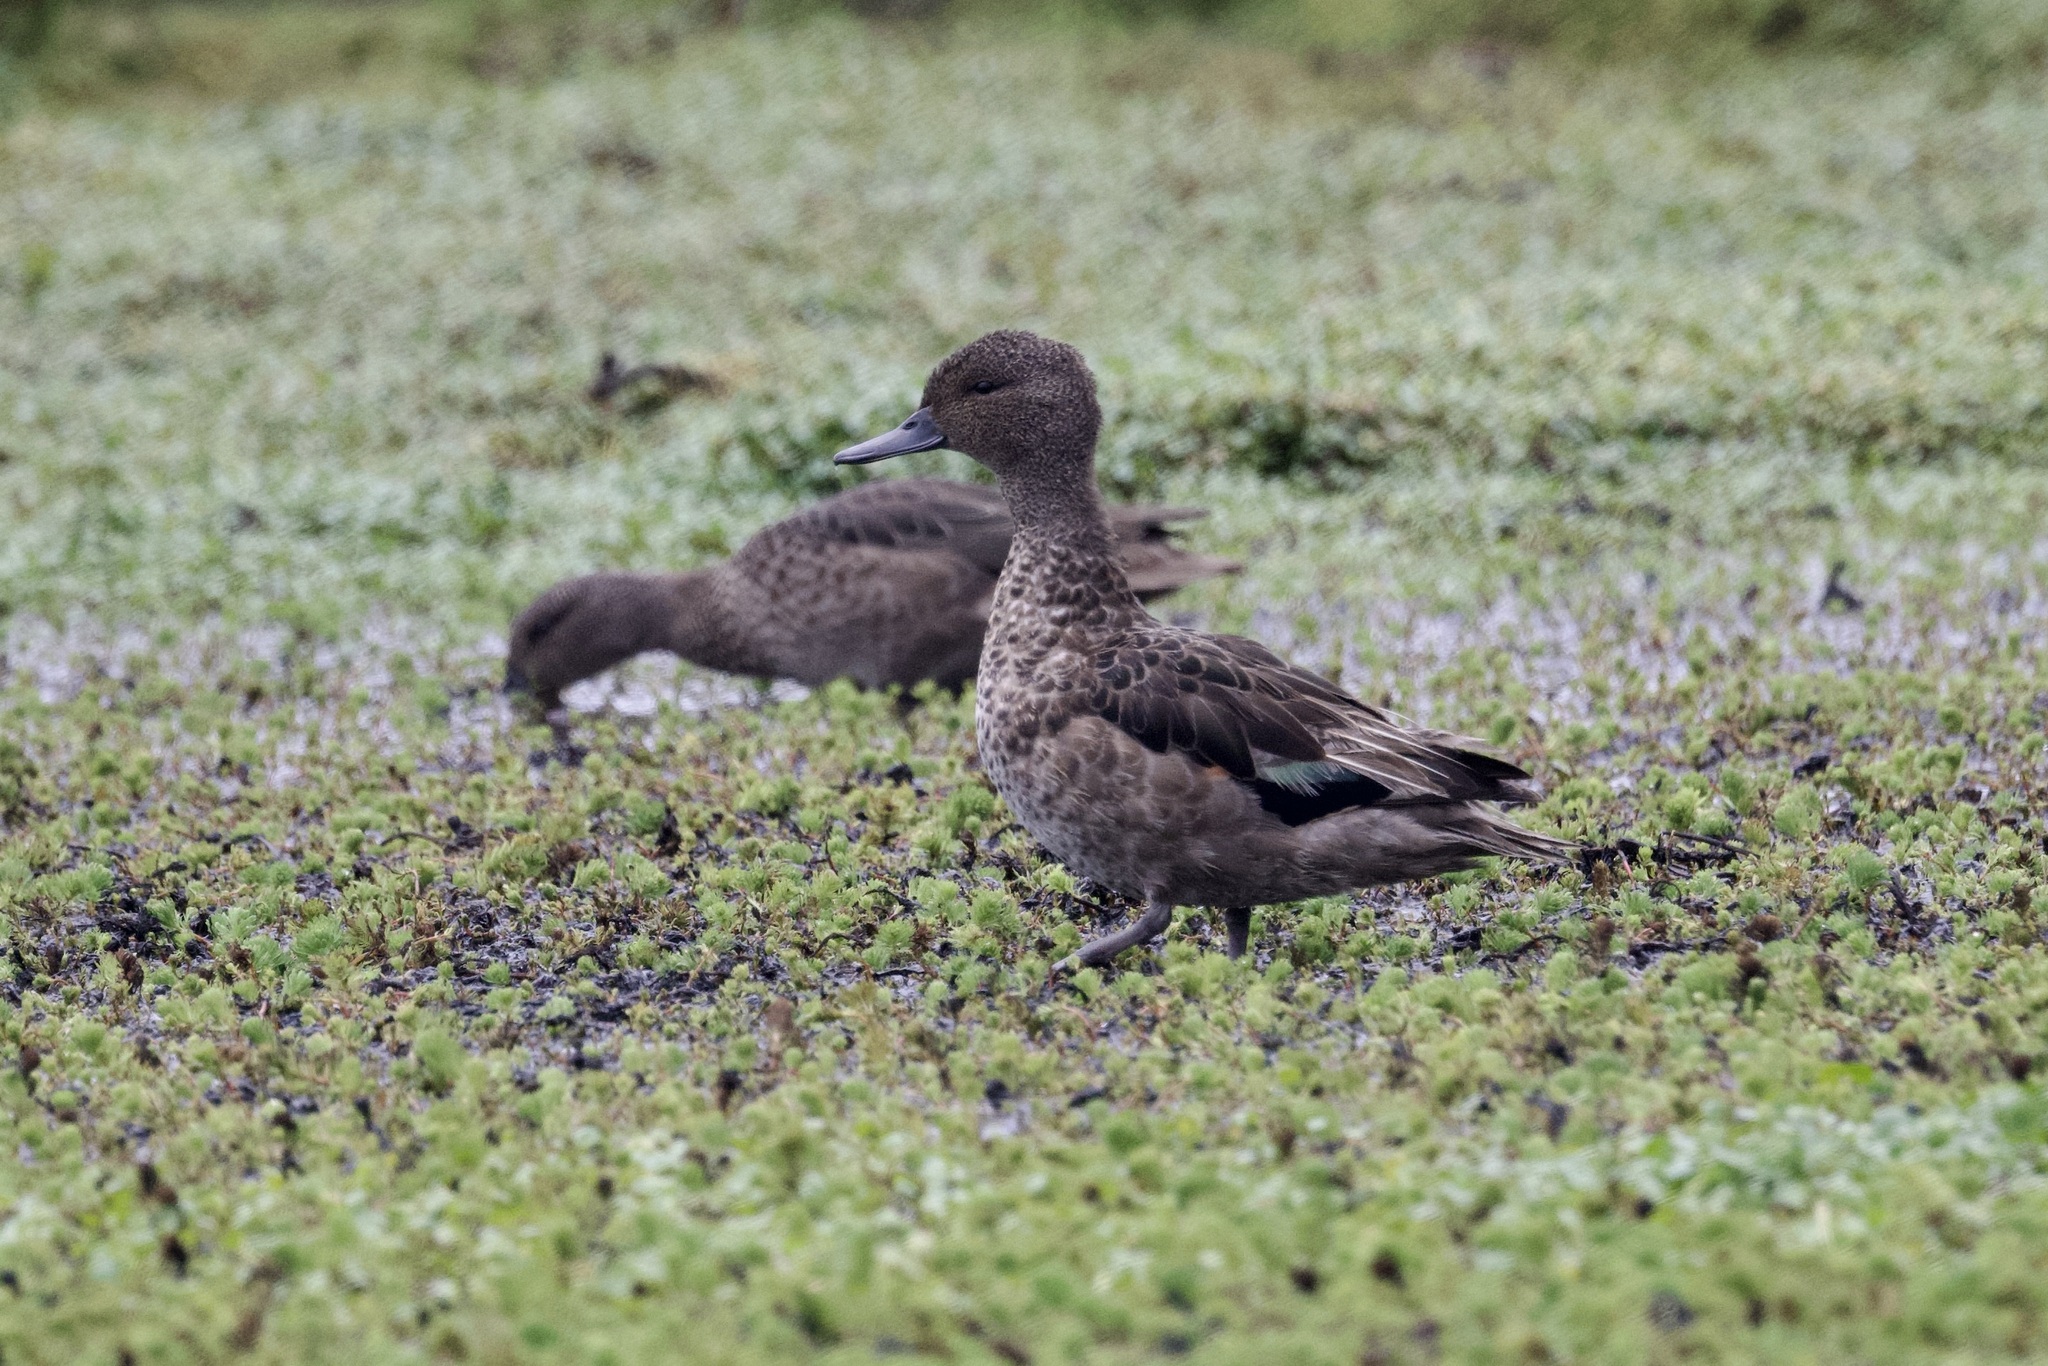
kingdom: Animalia
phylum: Chordata
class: Aves
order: Anseriformes
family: Anatidae
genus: Anas
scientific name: Anas andium
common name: Andean teal
